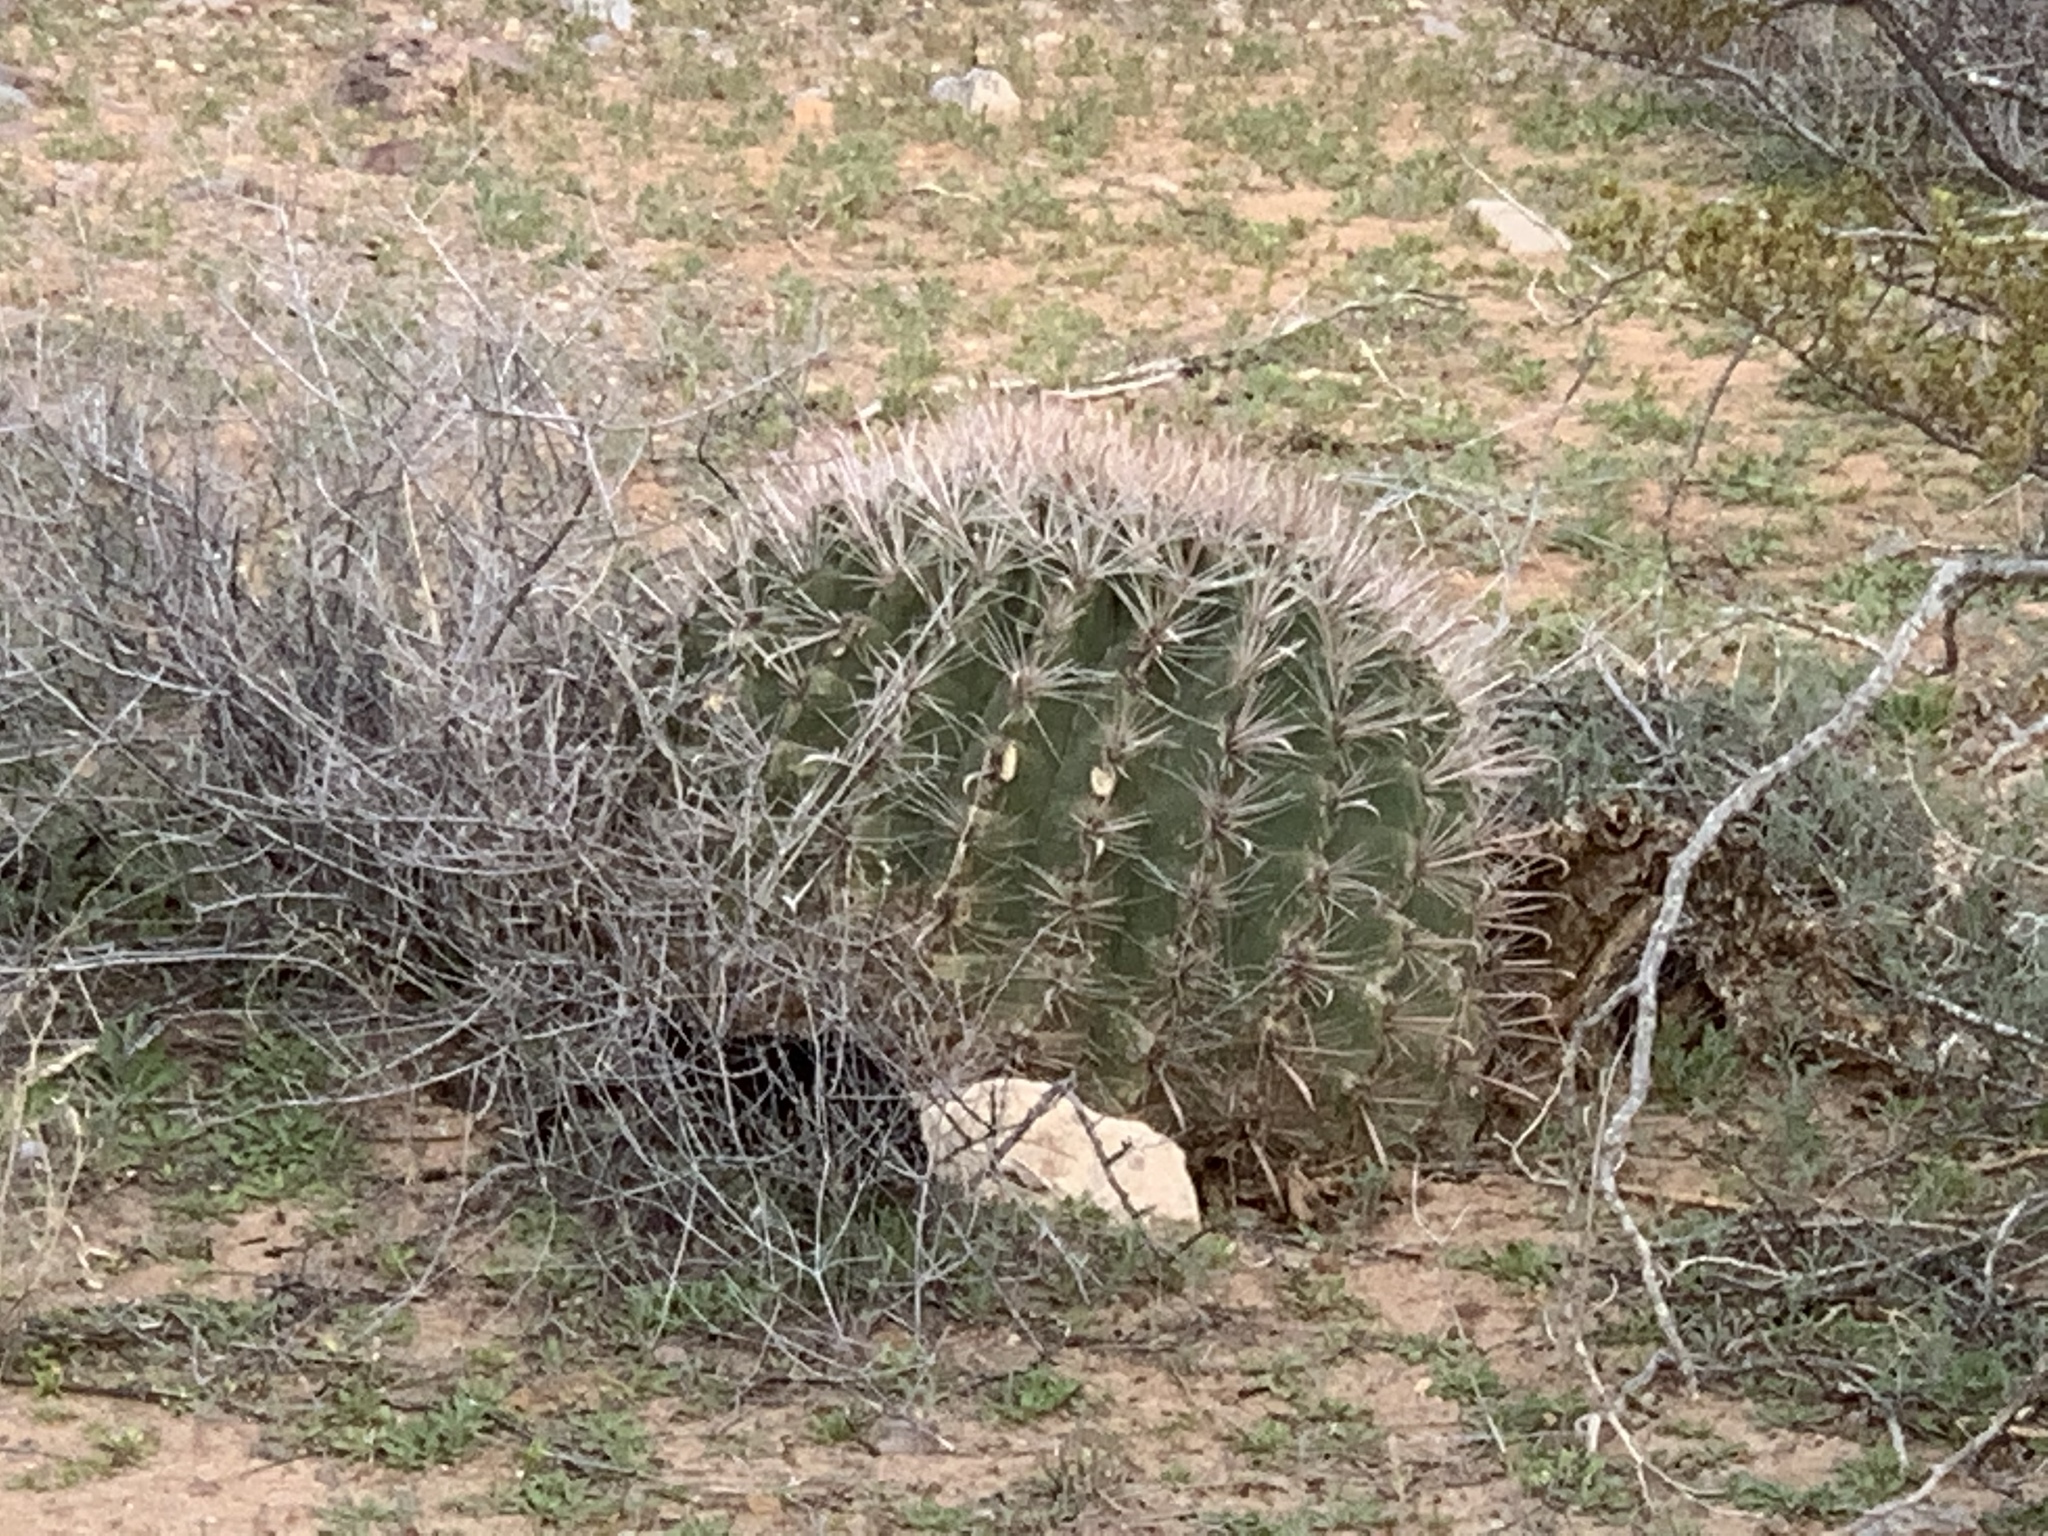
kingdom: Plantae
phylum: Tracheophyta
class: Magnoliopsida
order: Caryophyllales
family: Cactaceae
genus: Ferocactus
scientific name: Ferocactus wislizeni
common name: Candy barrel cactus
